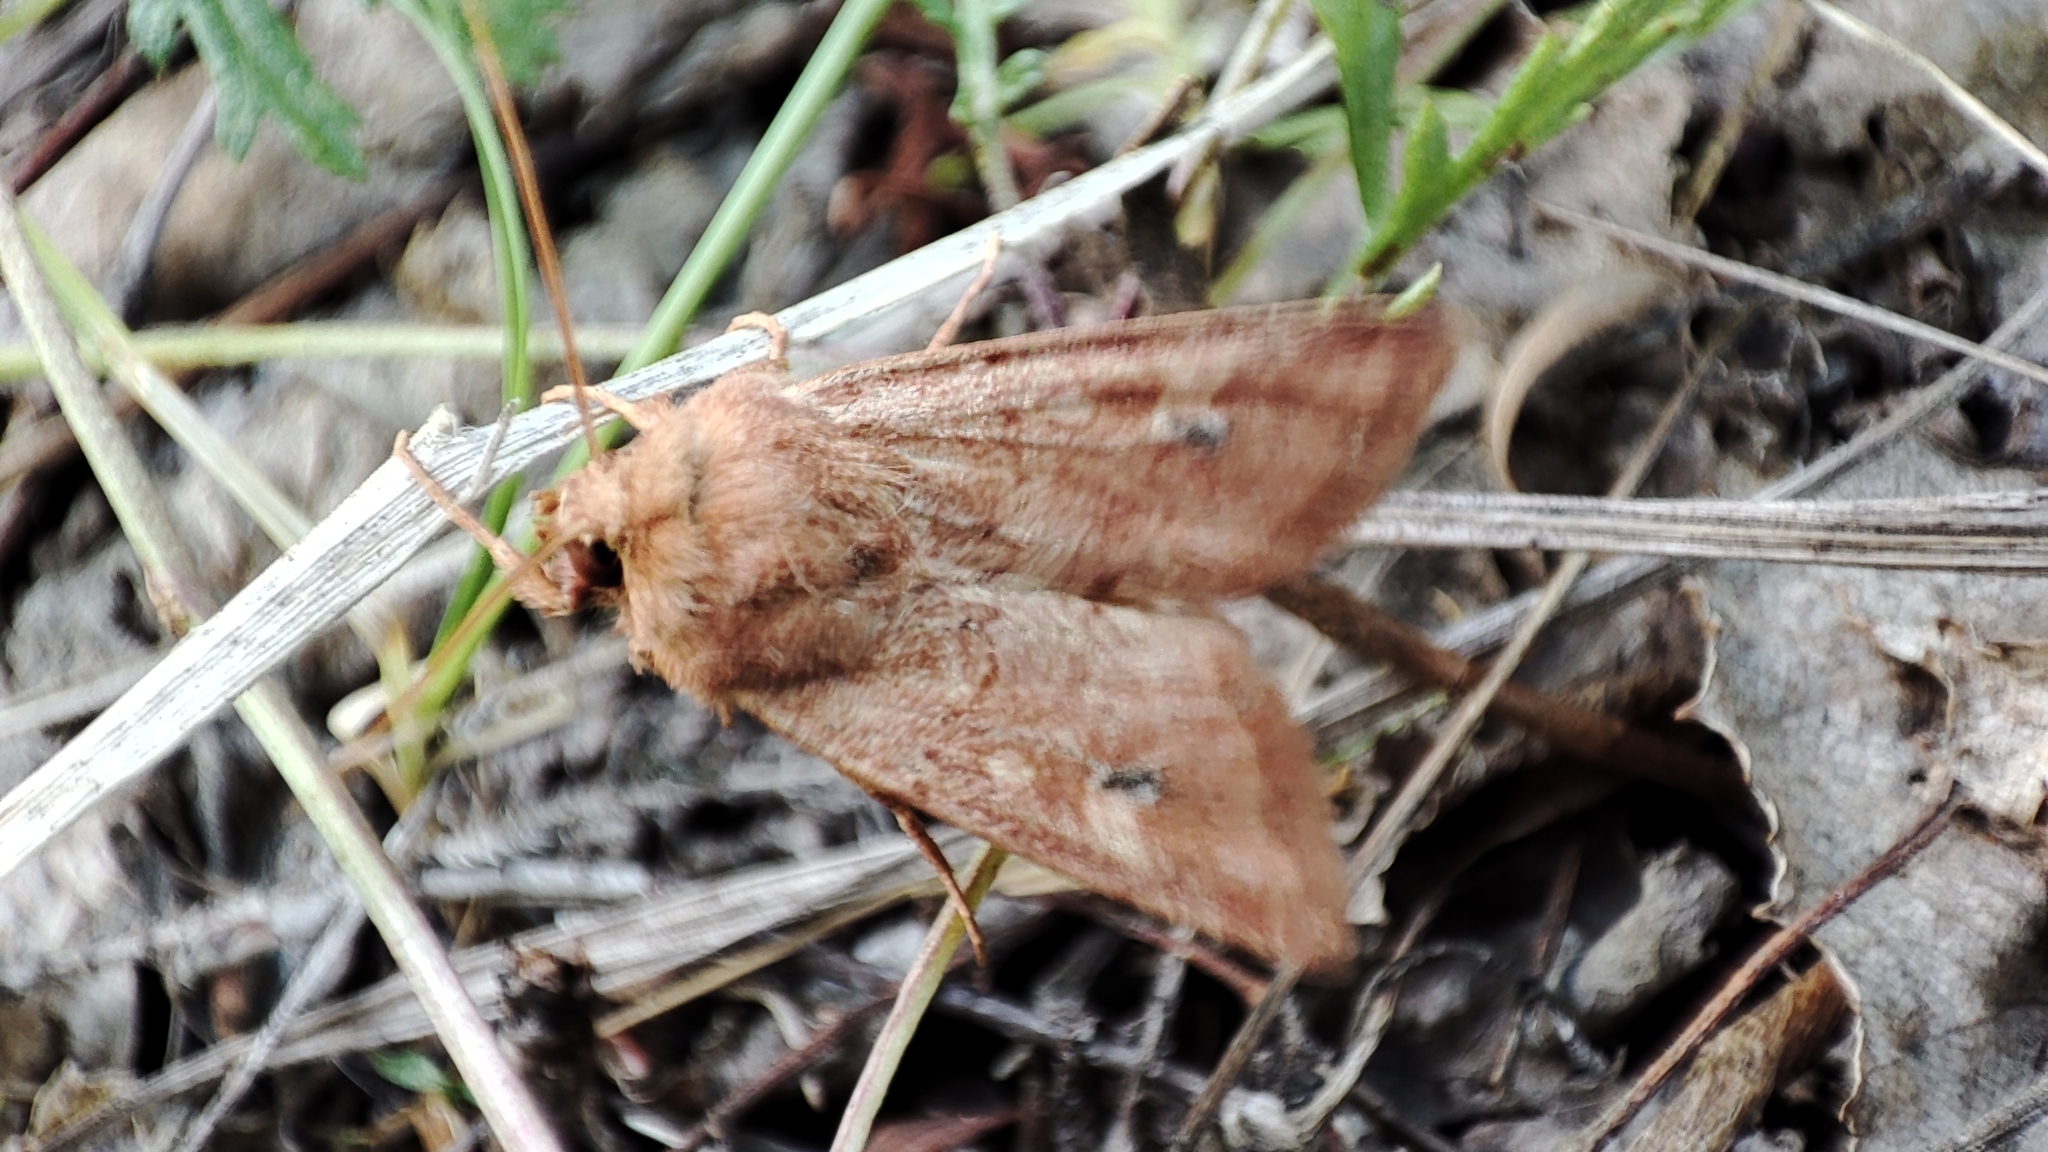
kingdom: Animalia
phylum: Arthropoda
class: Insecta
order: Lepidoptera
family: Noctuidae
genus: Apamea
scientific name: Apamea ferrago
